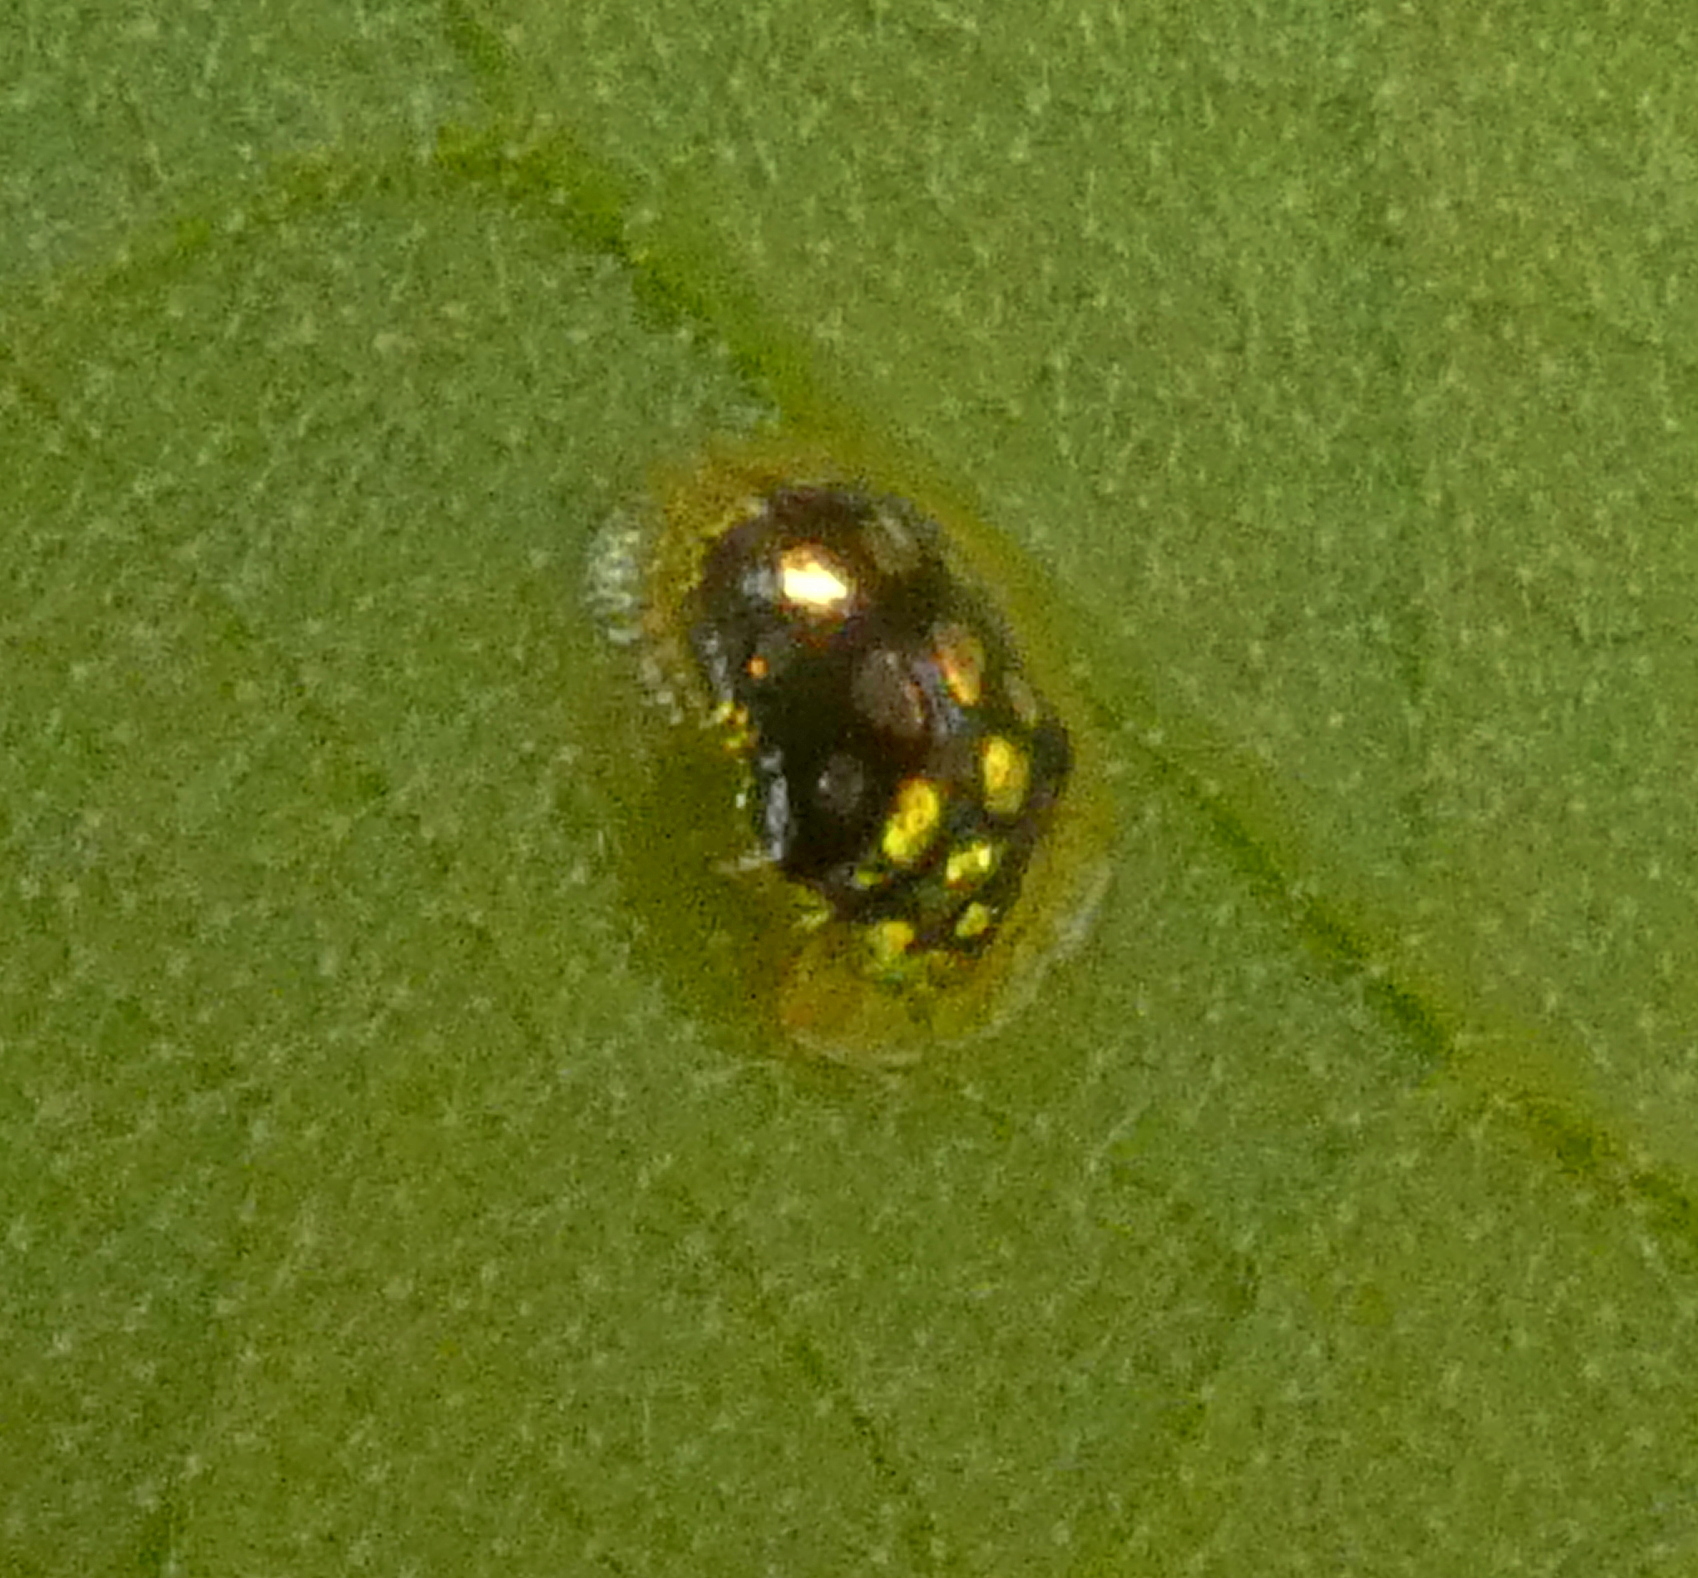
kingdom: Animalia
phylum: Arthropoda
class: Insecta
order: Coleoptera
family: Chrysomelidae
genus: Plagiometriona
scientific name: Plagiometriona microcera
